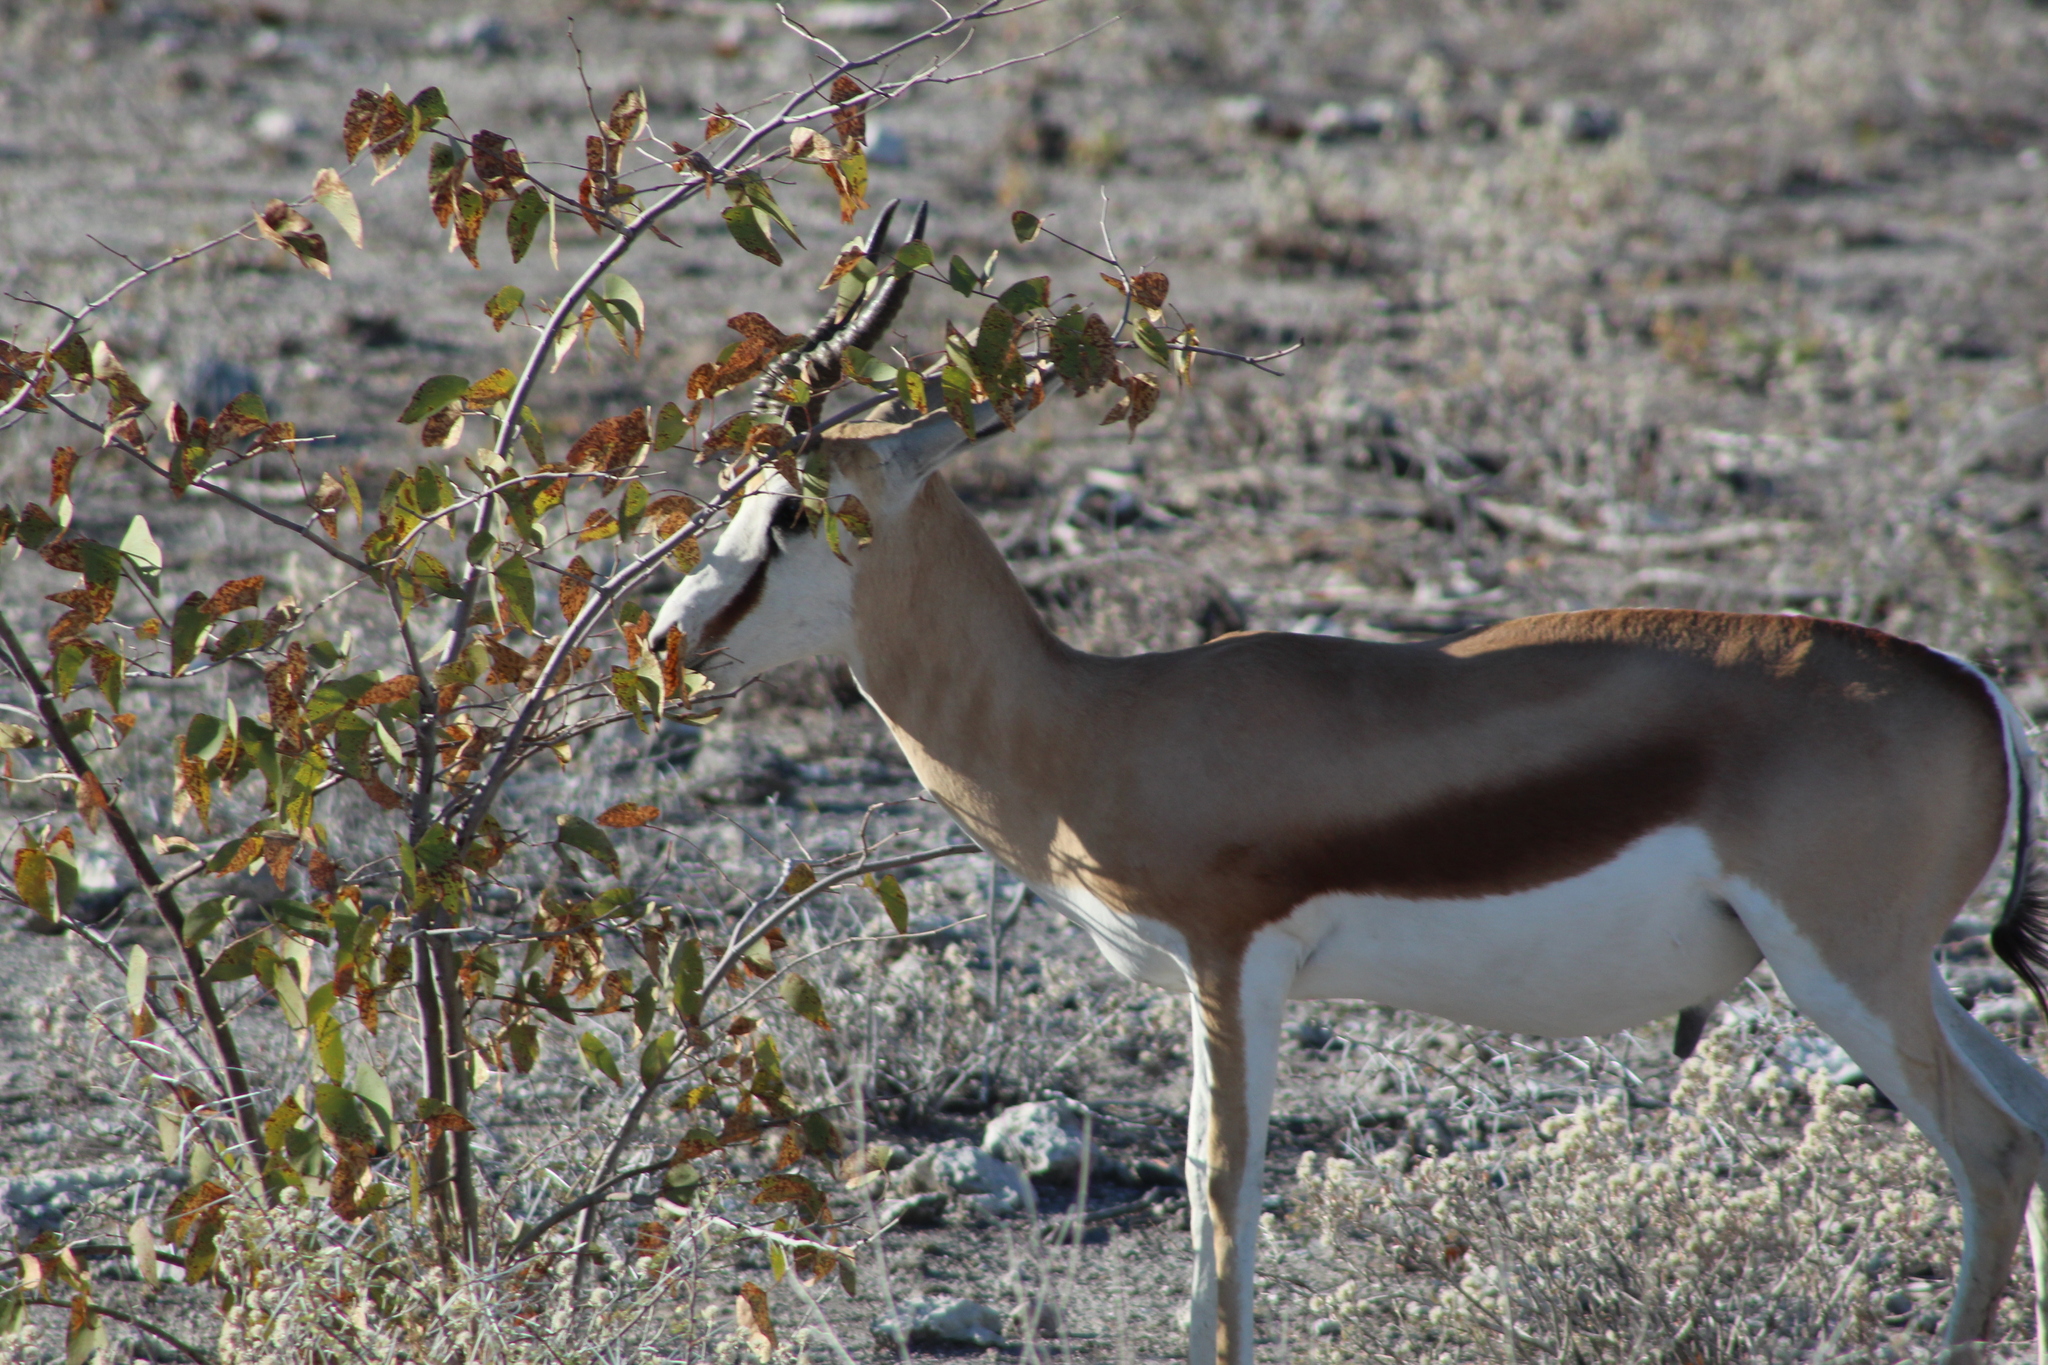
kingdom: Animalia
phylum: Chordata
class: Mammalia
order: Artiodactyla
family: Bovidae
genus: Antidorcas
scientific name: Antidorcas marsupialis
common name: Springbok
